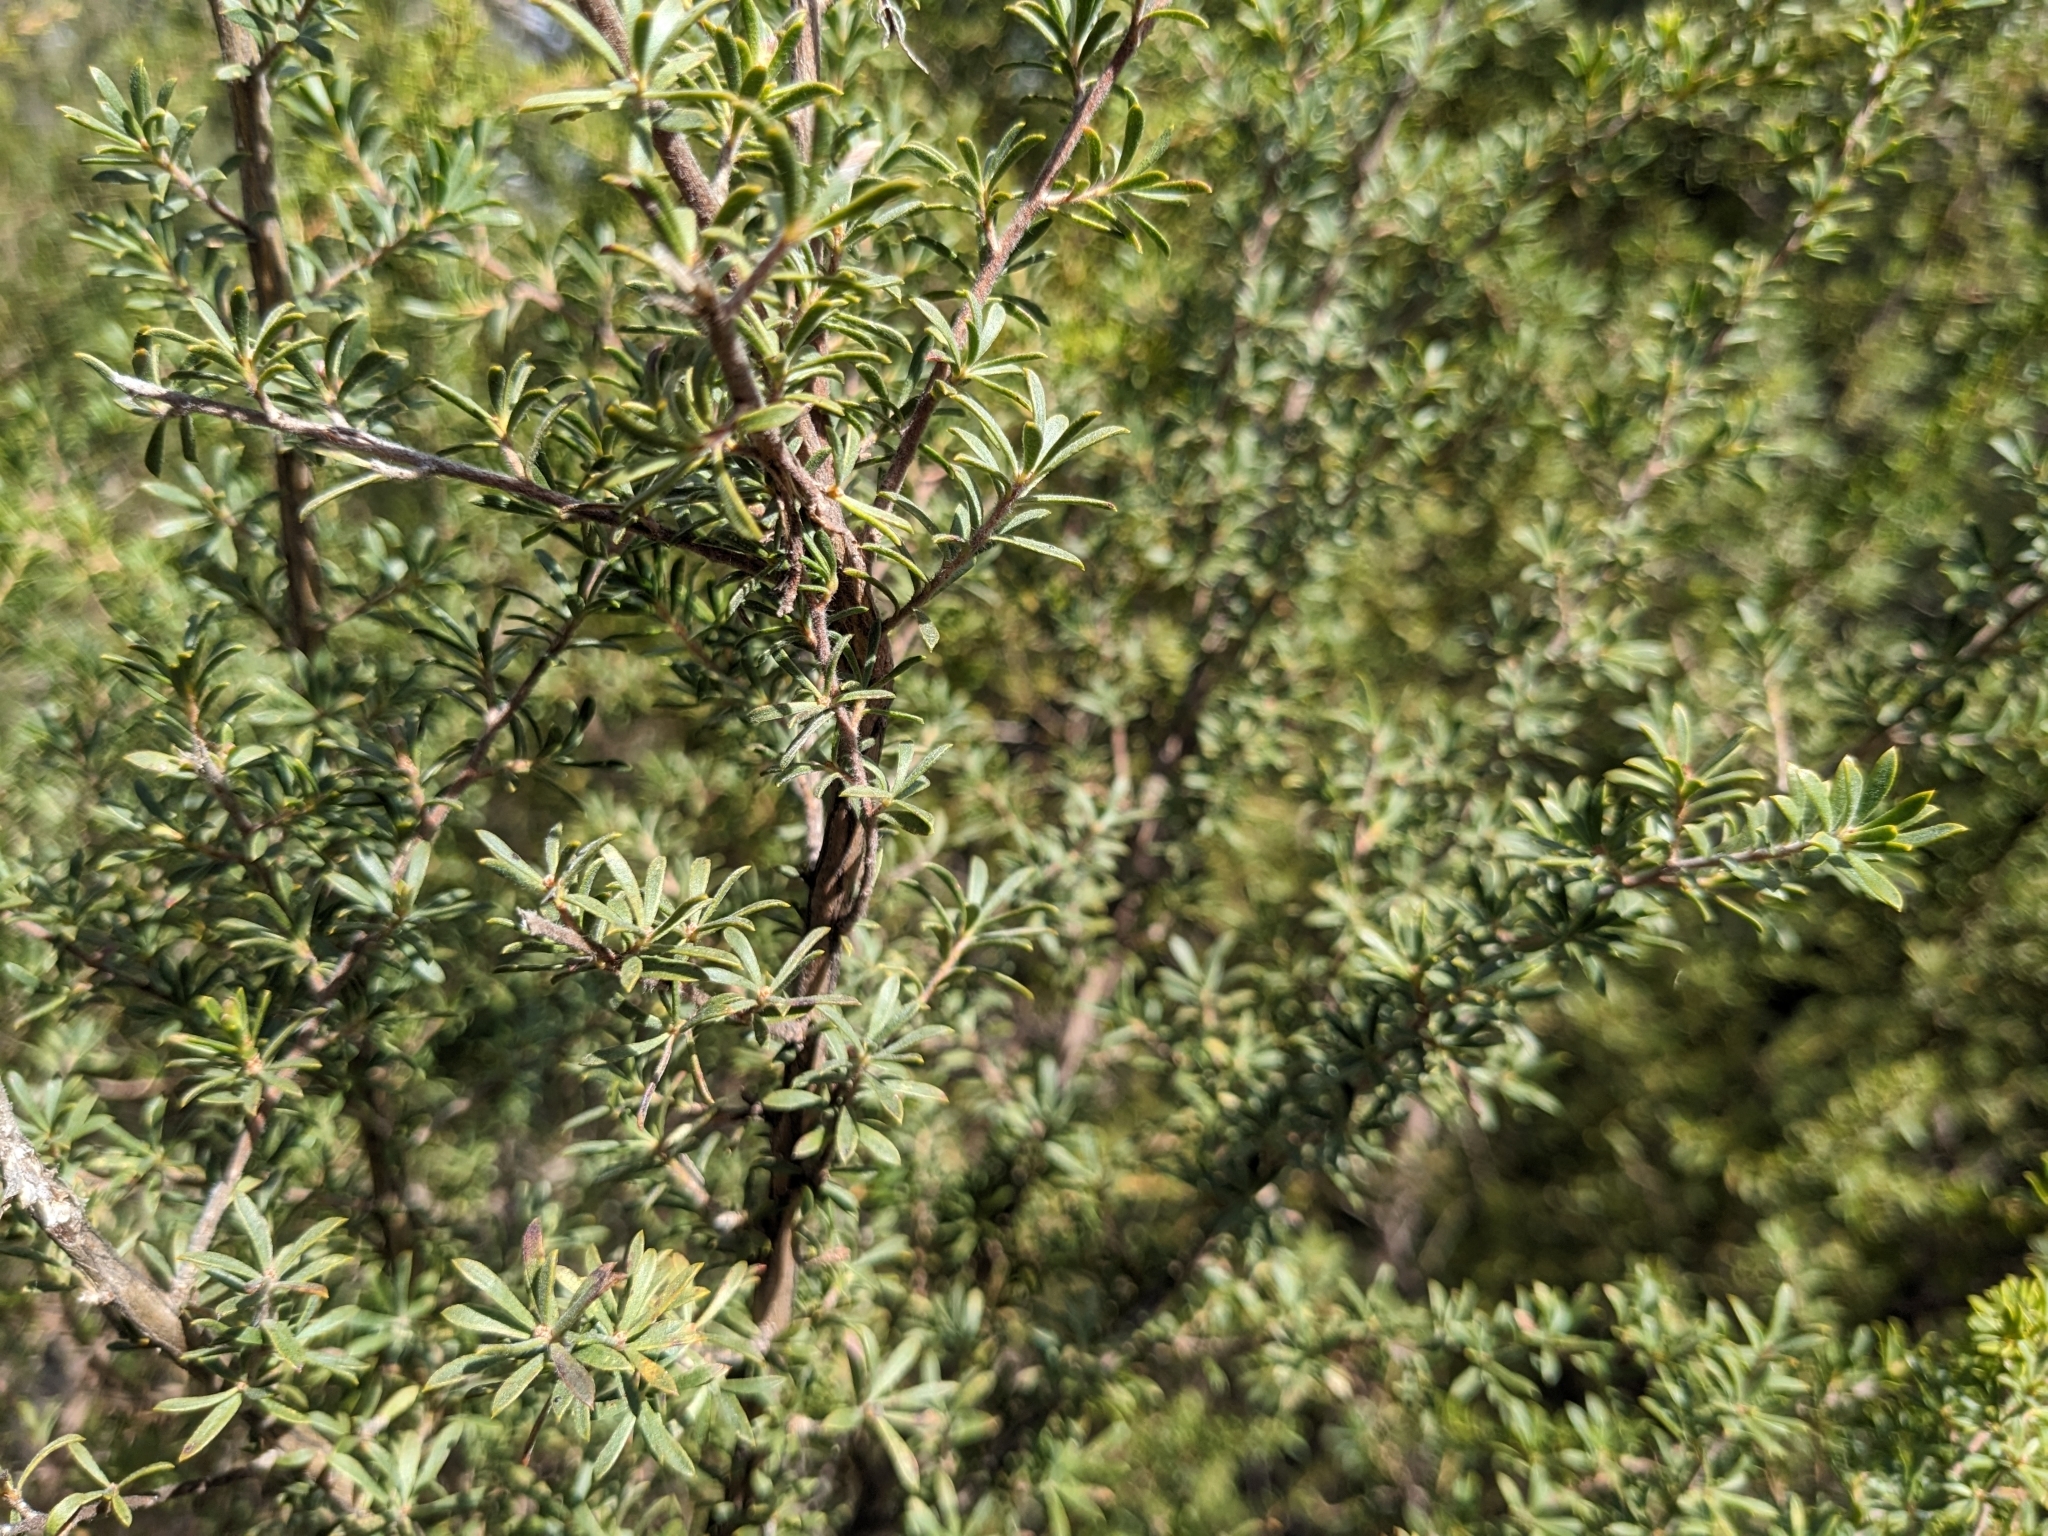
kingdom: Plantae
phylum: Tracheophyta
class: Magnoliopsida
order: Myrtales
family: Myrtaceae
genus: Kunzea
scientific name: Kunzea ambigua
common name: Tickbush
